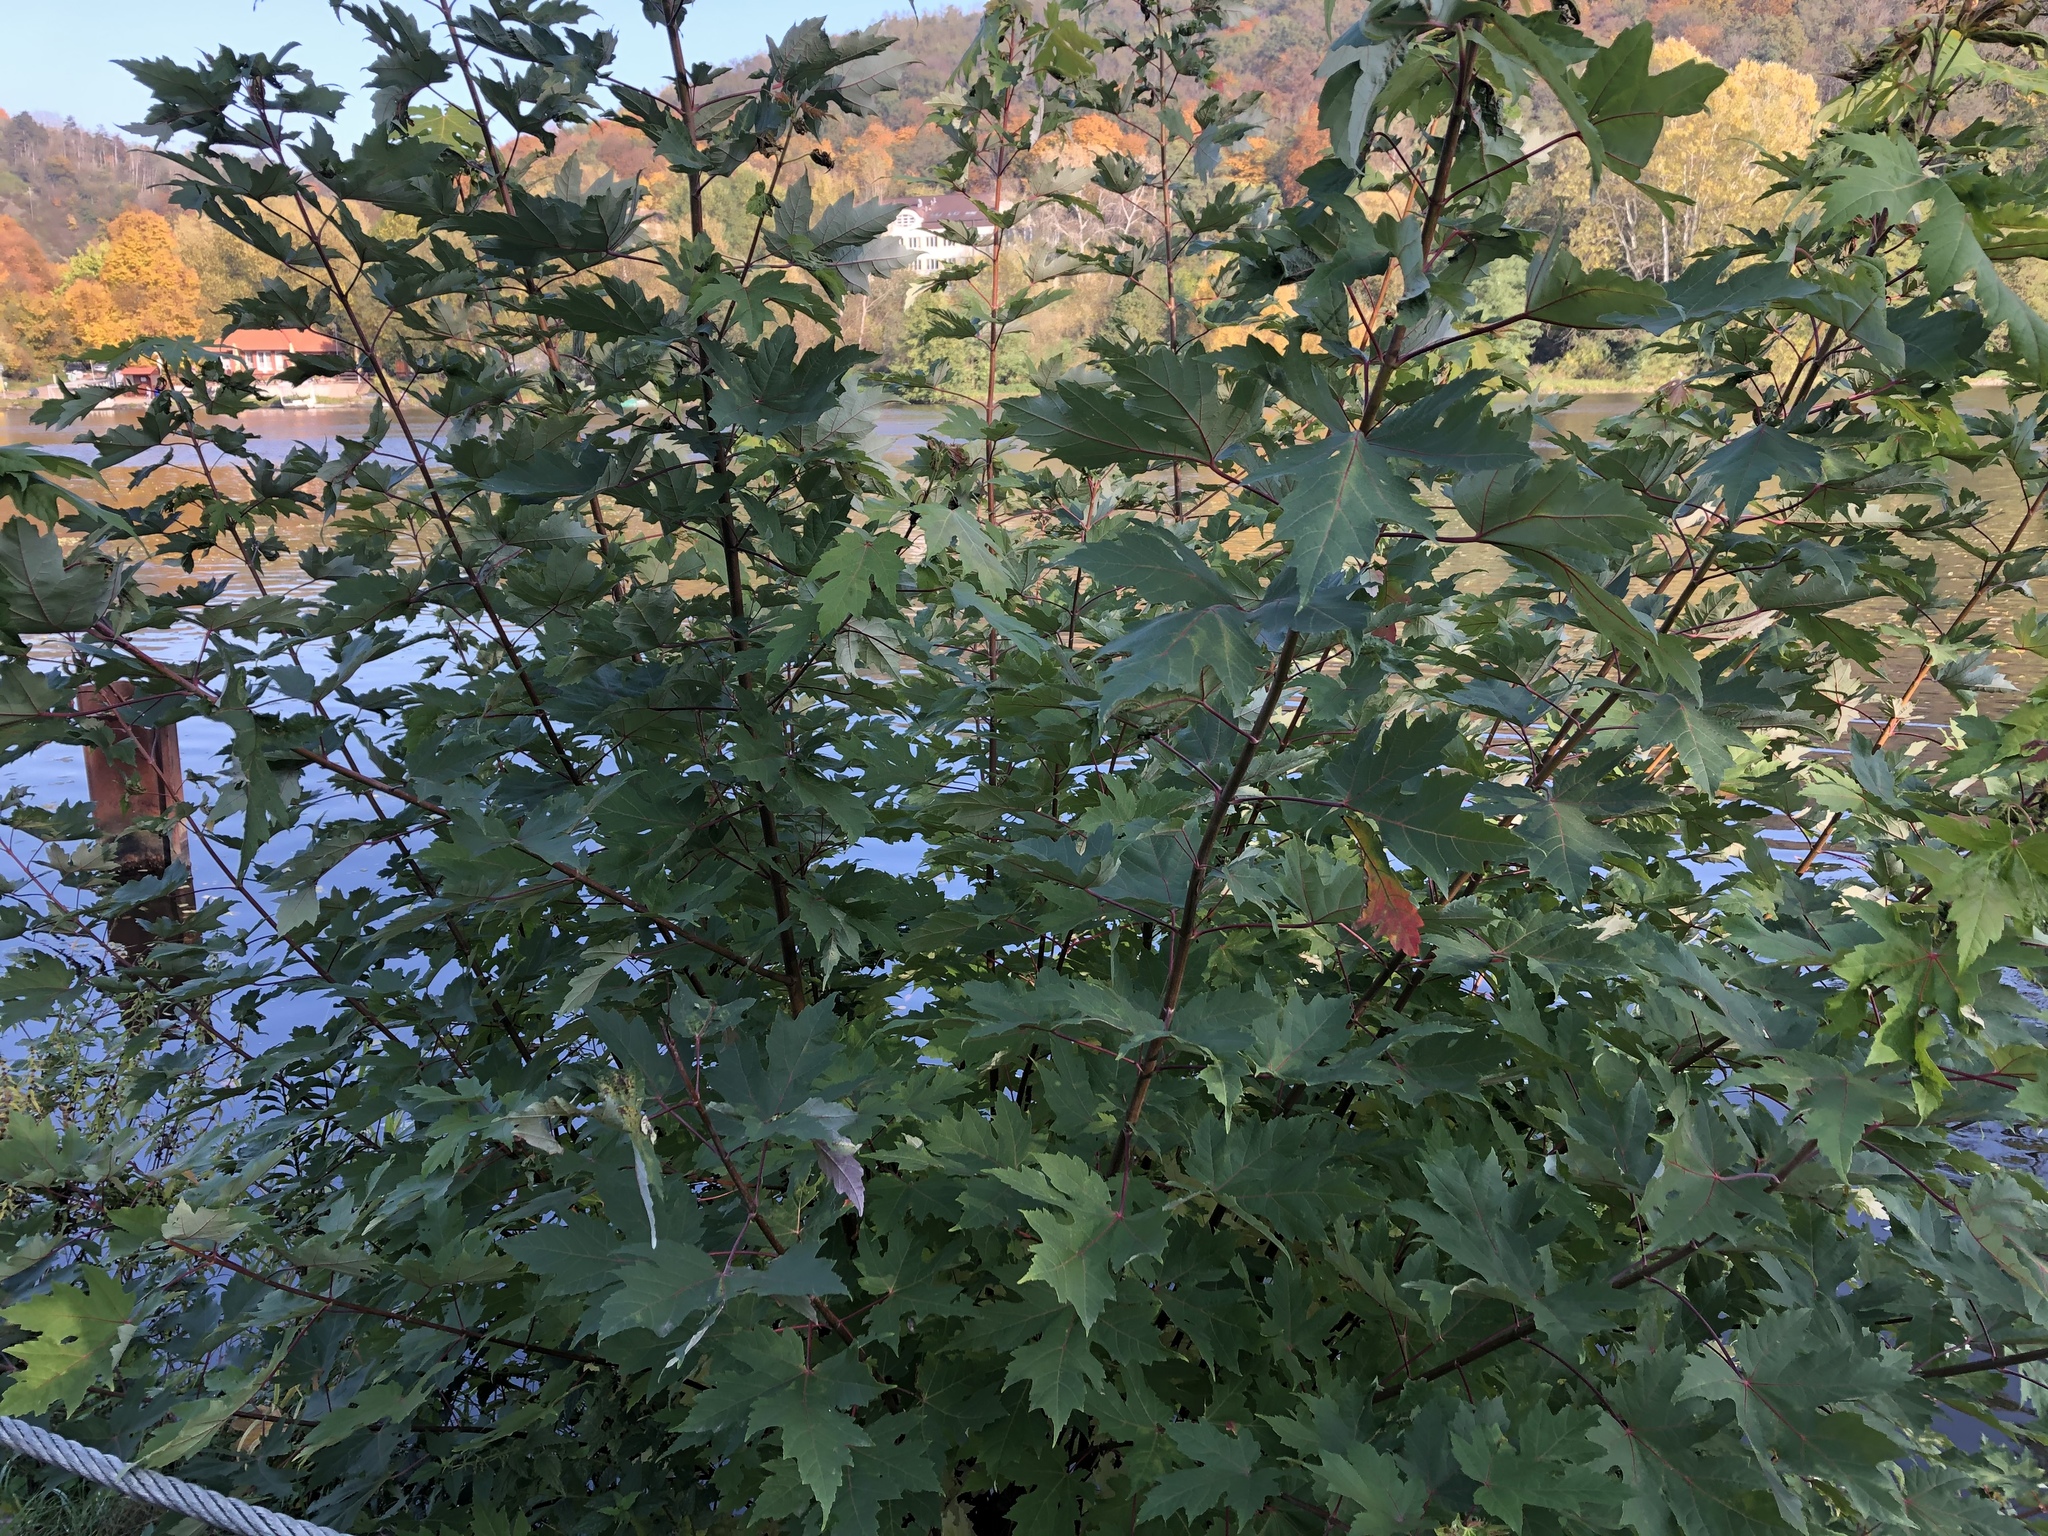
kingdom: Plantae
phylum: Tracheophyta
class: Magnoliopsida
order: Sapindales
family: Sapindaceae
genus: Acer
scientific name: Acer saccharinum
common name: Silver maple
